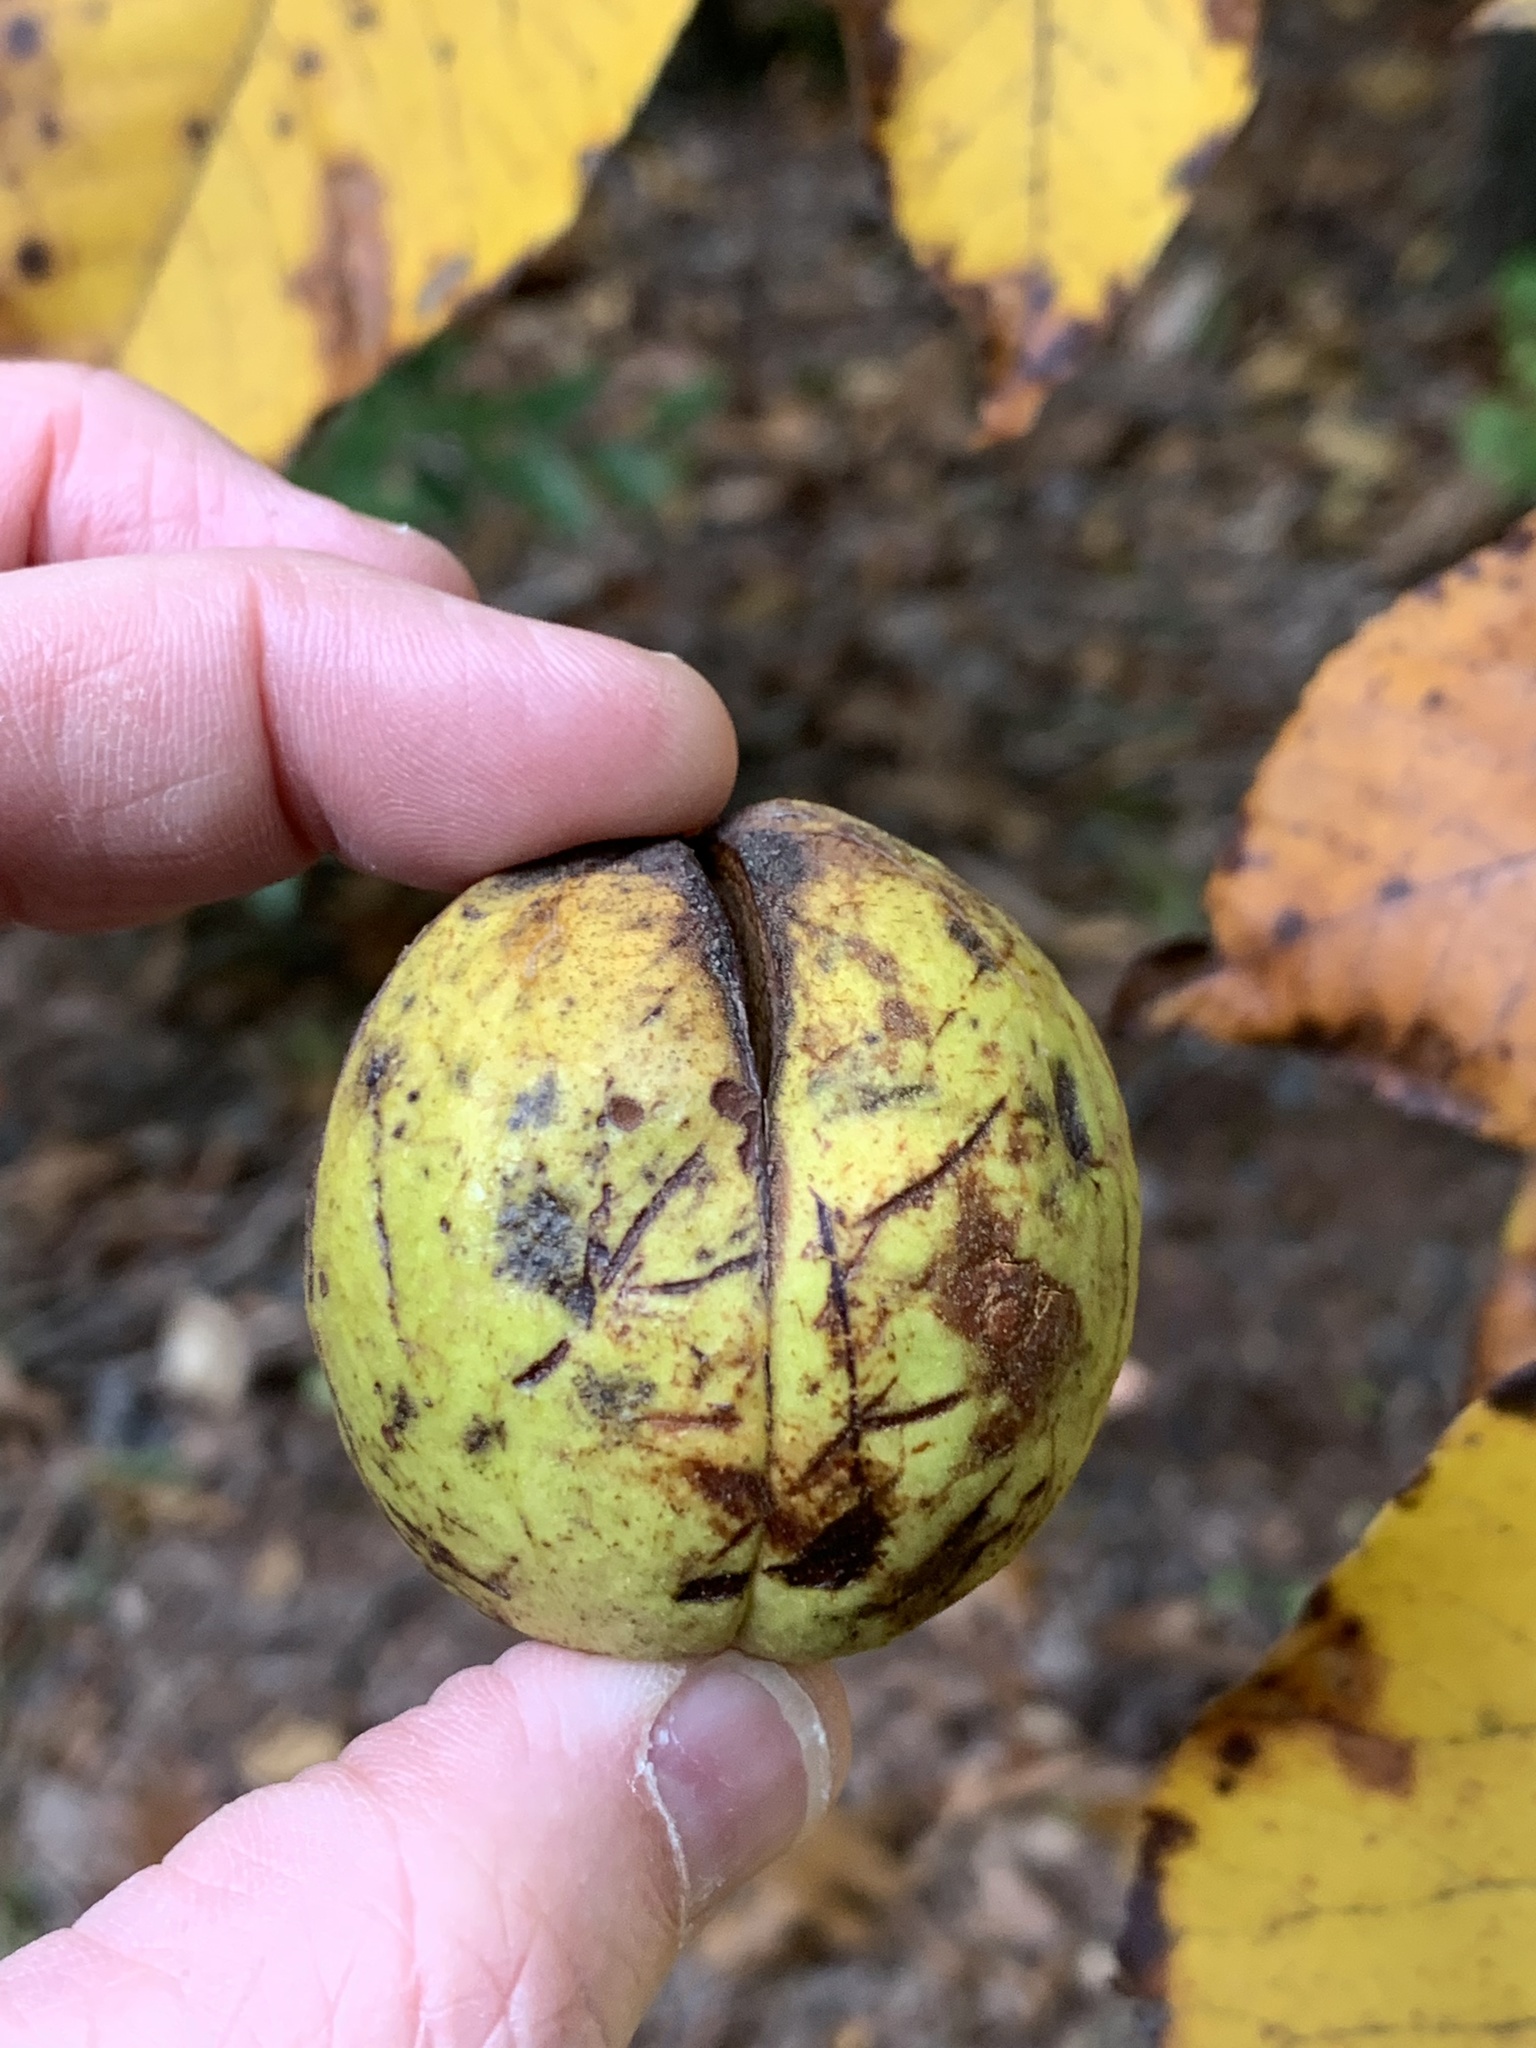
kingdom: Plantae
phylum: Tracheophyta
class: Magnoliopsida
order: Fagales
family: Juglandaceae
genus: Carya
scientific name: Carya alba
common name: Mockernut hickory
